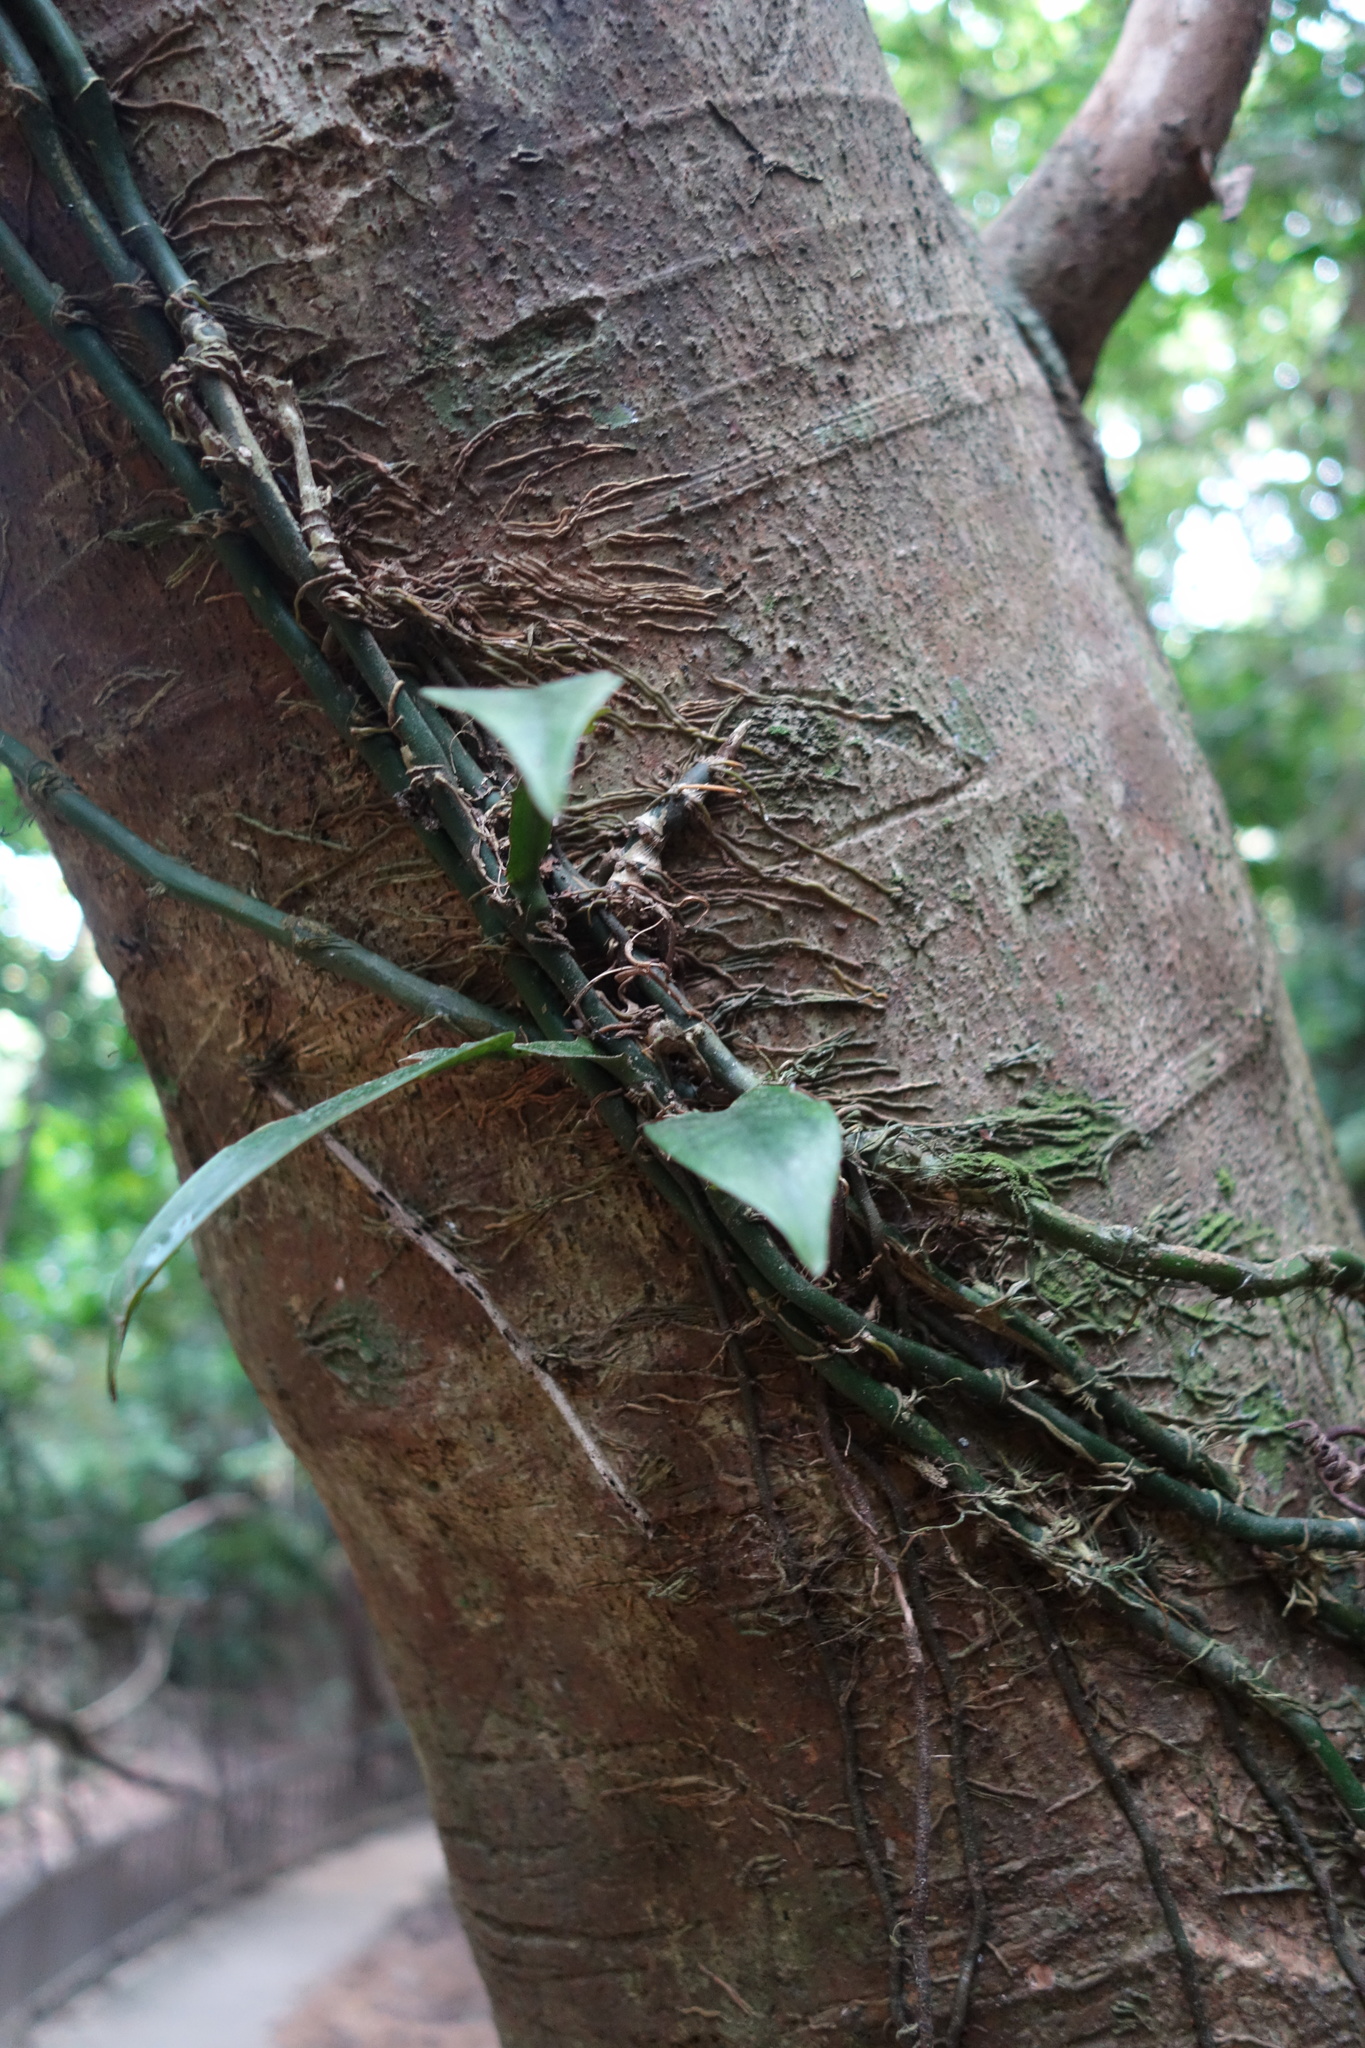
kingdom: Plantae
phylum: Tracheophyta
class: Liliopsida
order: Alismatales
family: Araceae
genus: Pothos
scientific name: Pothos chinensis
